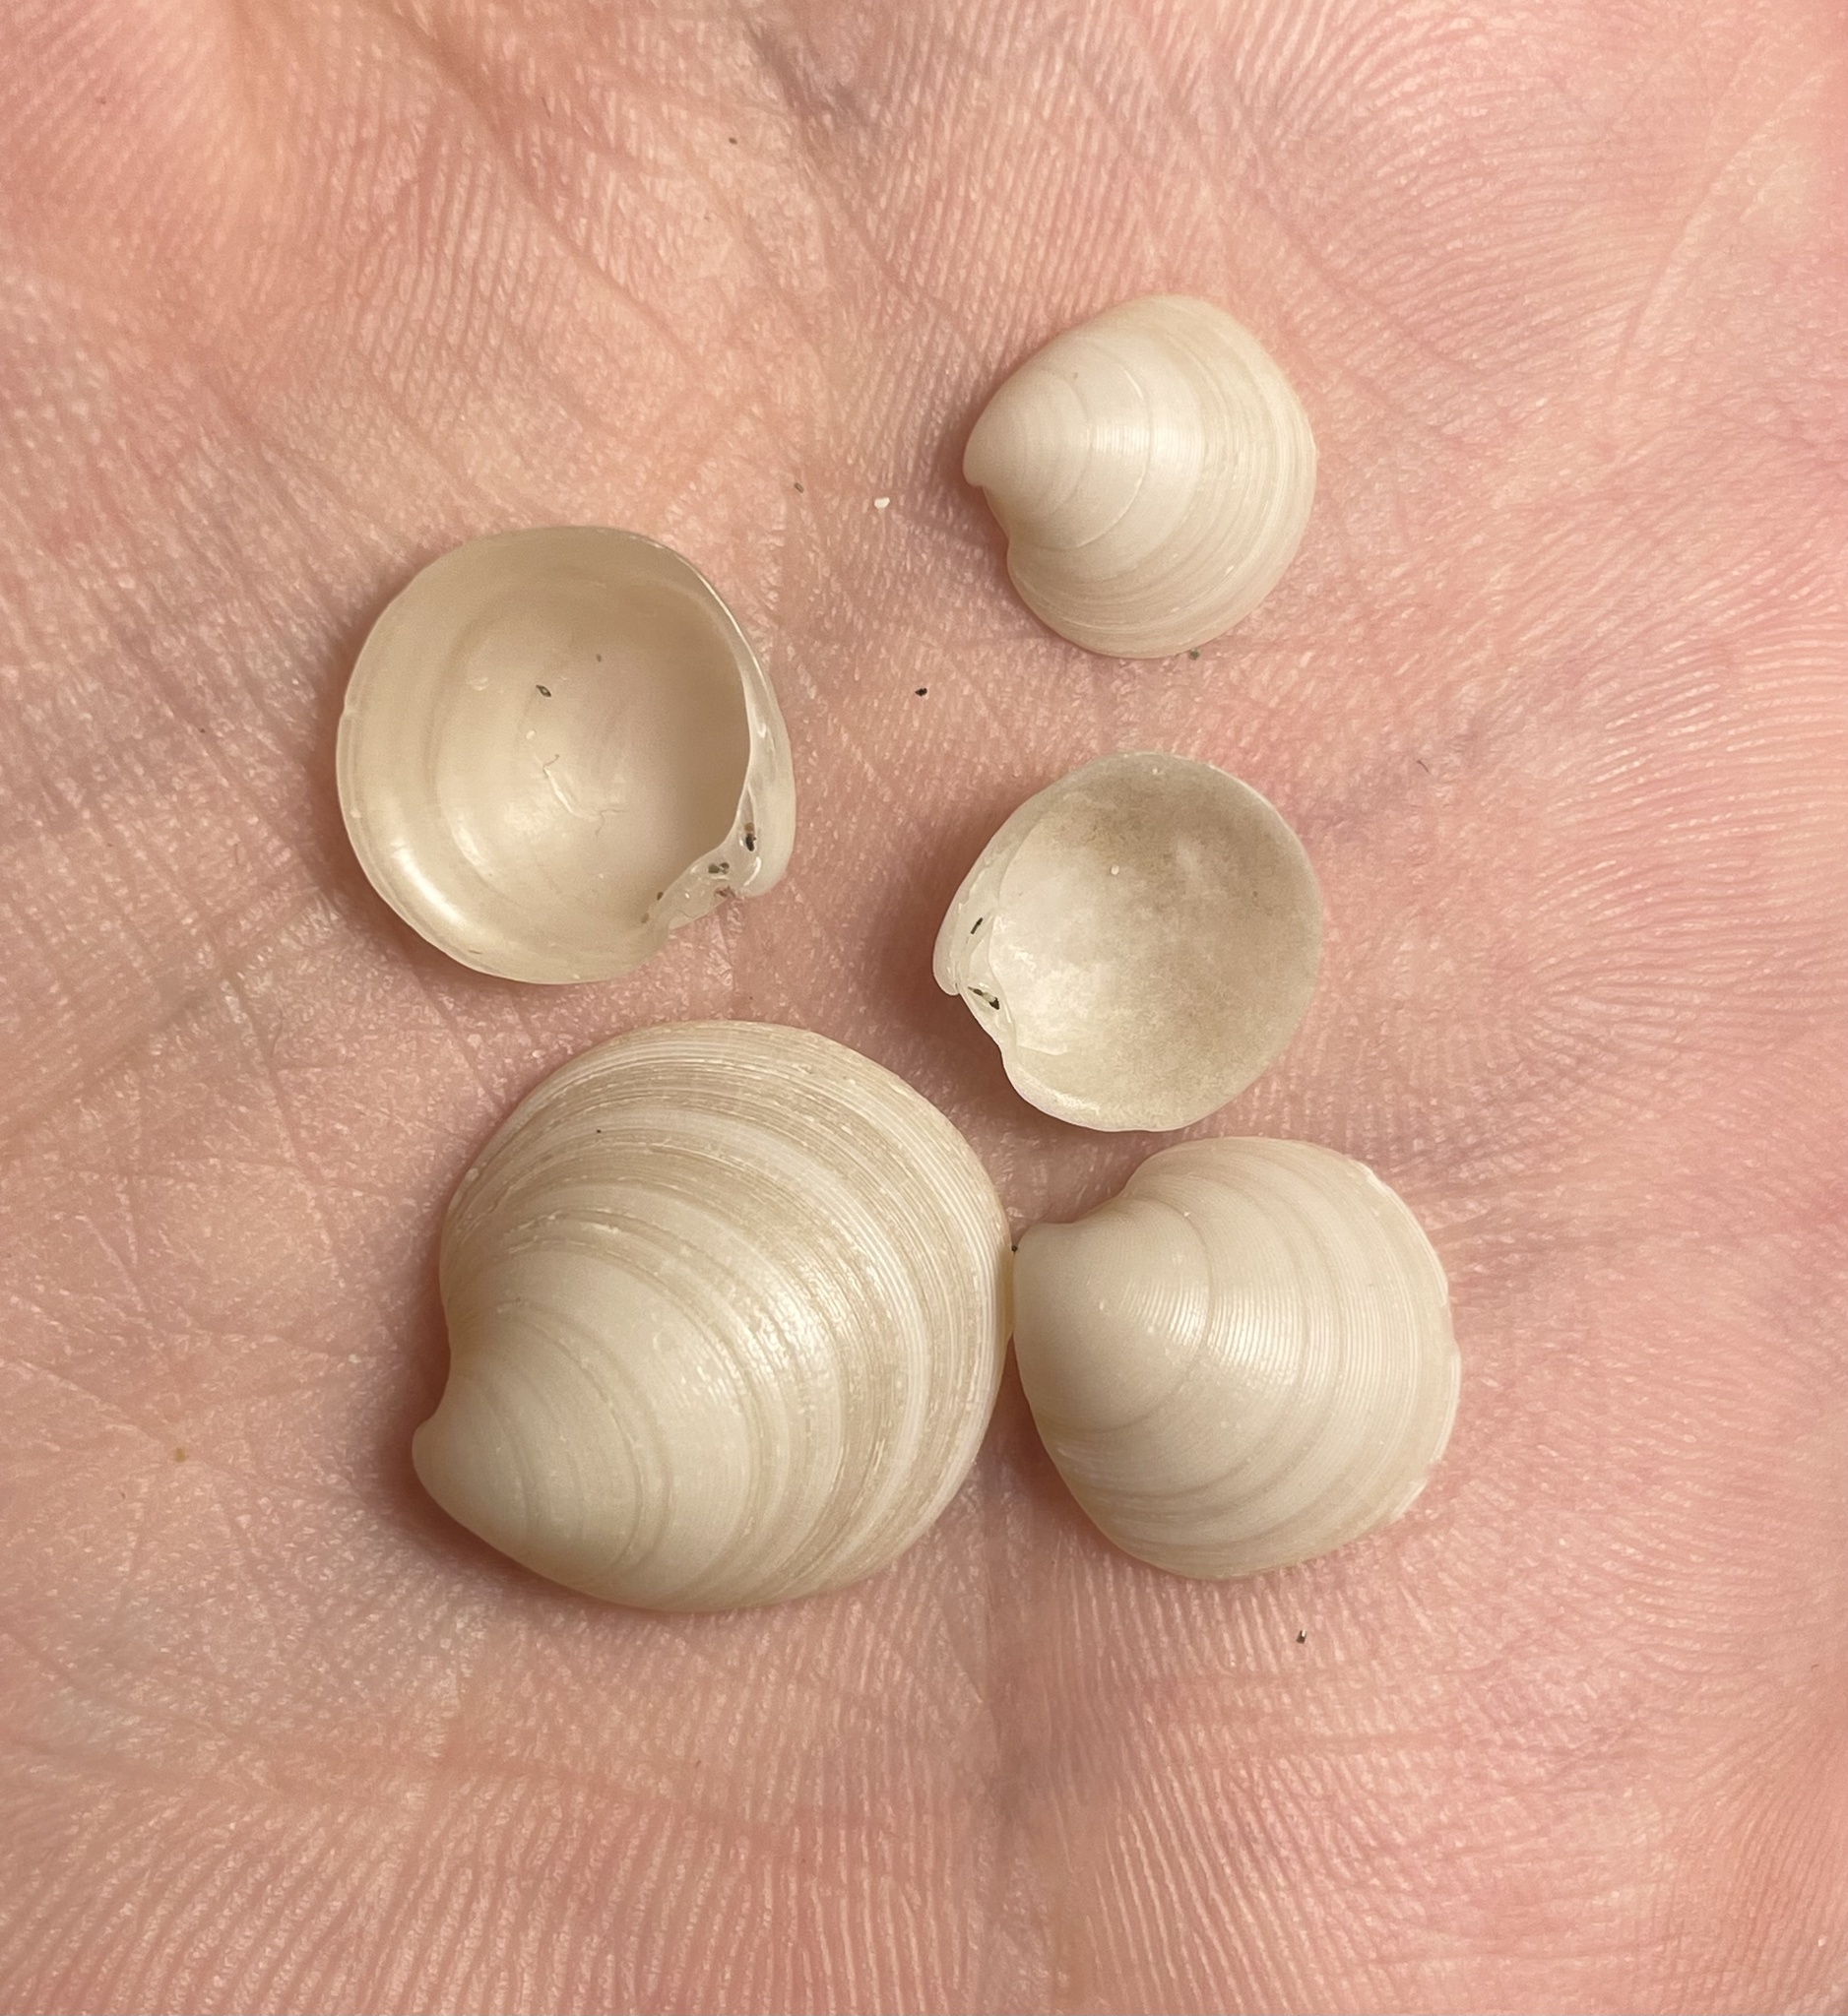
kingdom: Animalia
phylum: Mollusca
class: Bivalvia
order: Venerida
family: Veneridae
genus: Dosinia
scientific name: Dosinia lupinus
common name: Smooth artemis
